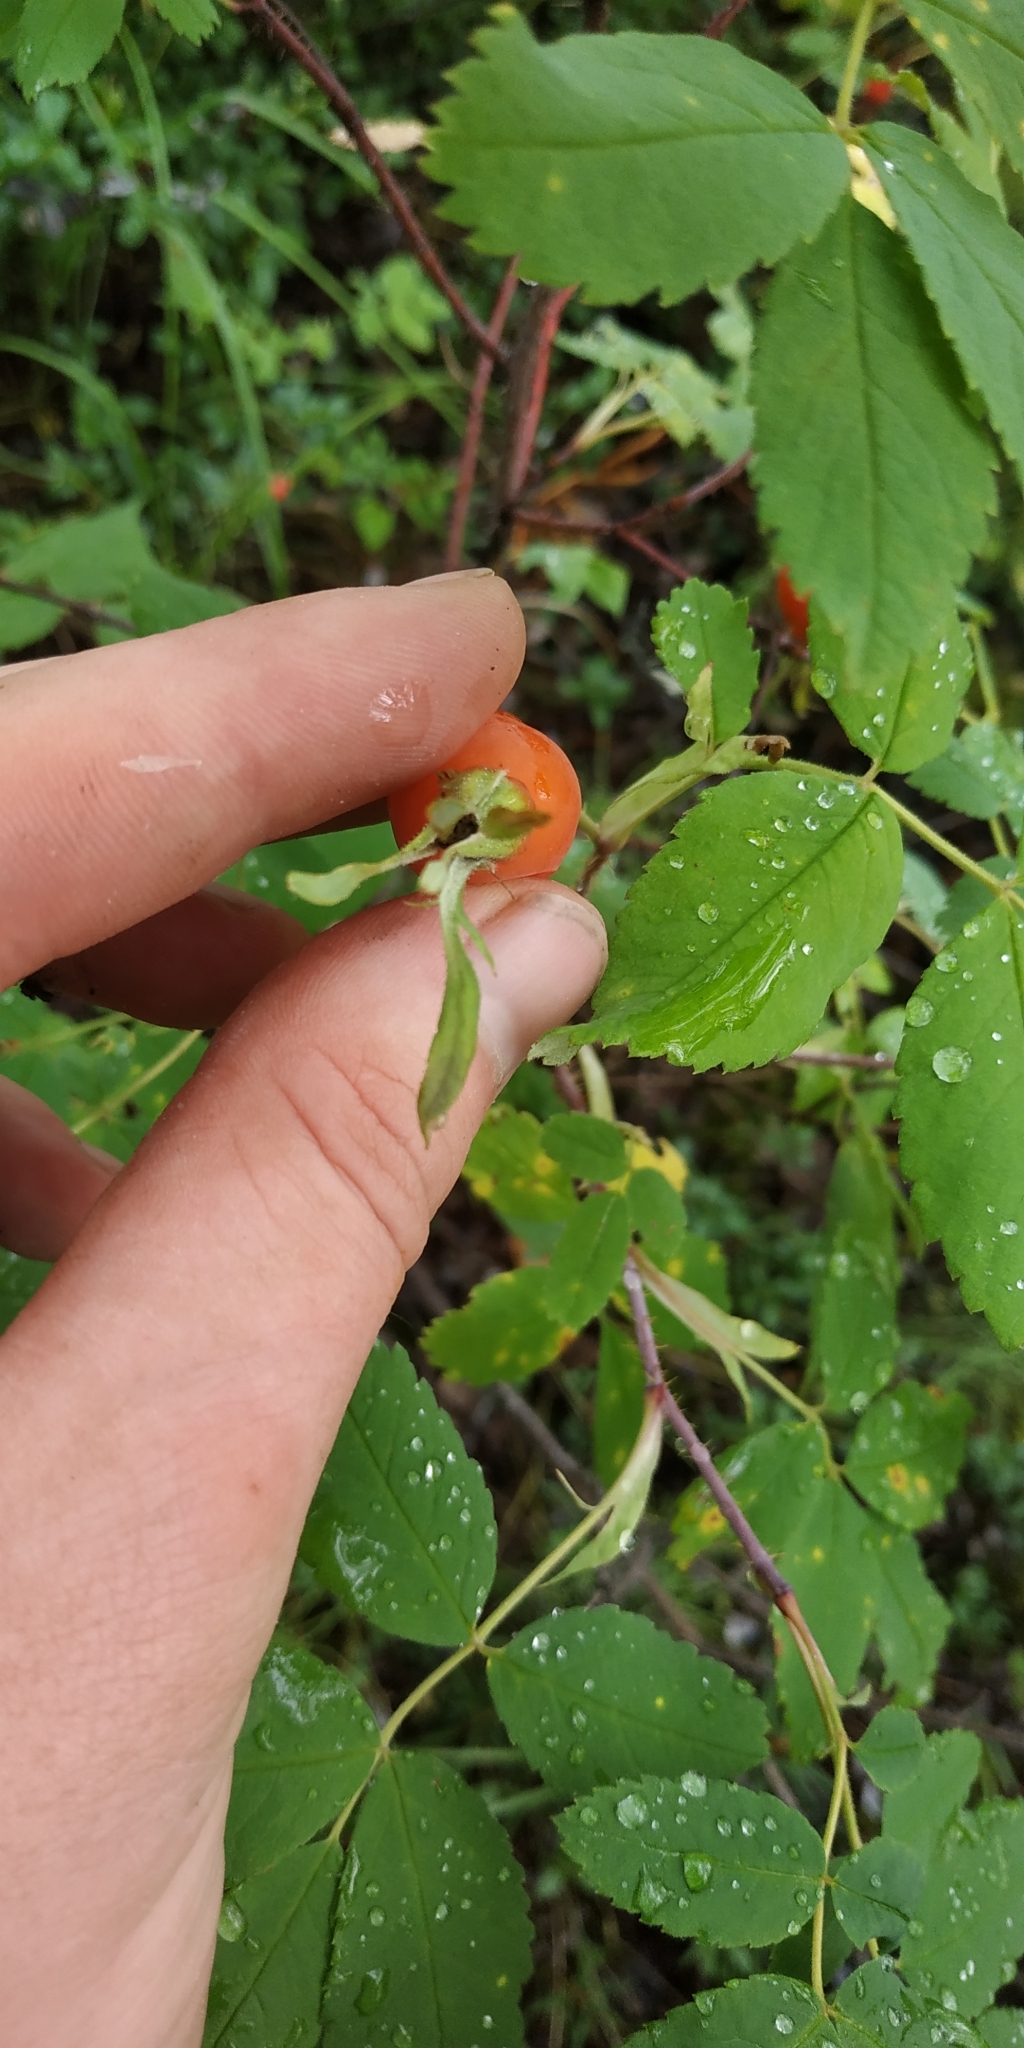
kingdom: Plantae
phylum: Tracheophyta
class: Magnoliopsida
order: Rosales
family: Rosaceae
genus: Rosa
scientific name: Rosa acicularis
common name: Prickly rose
